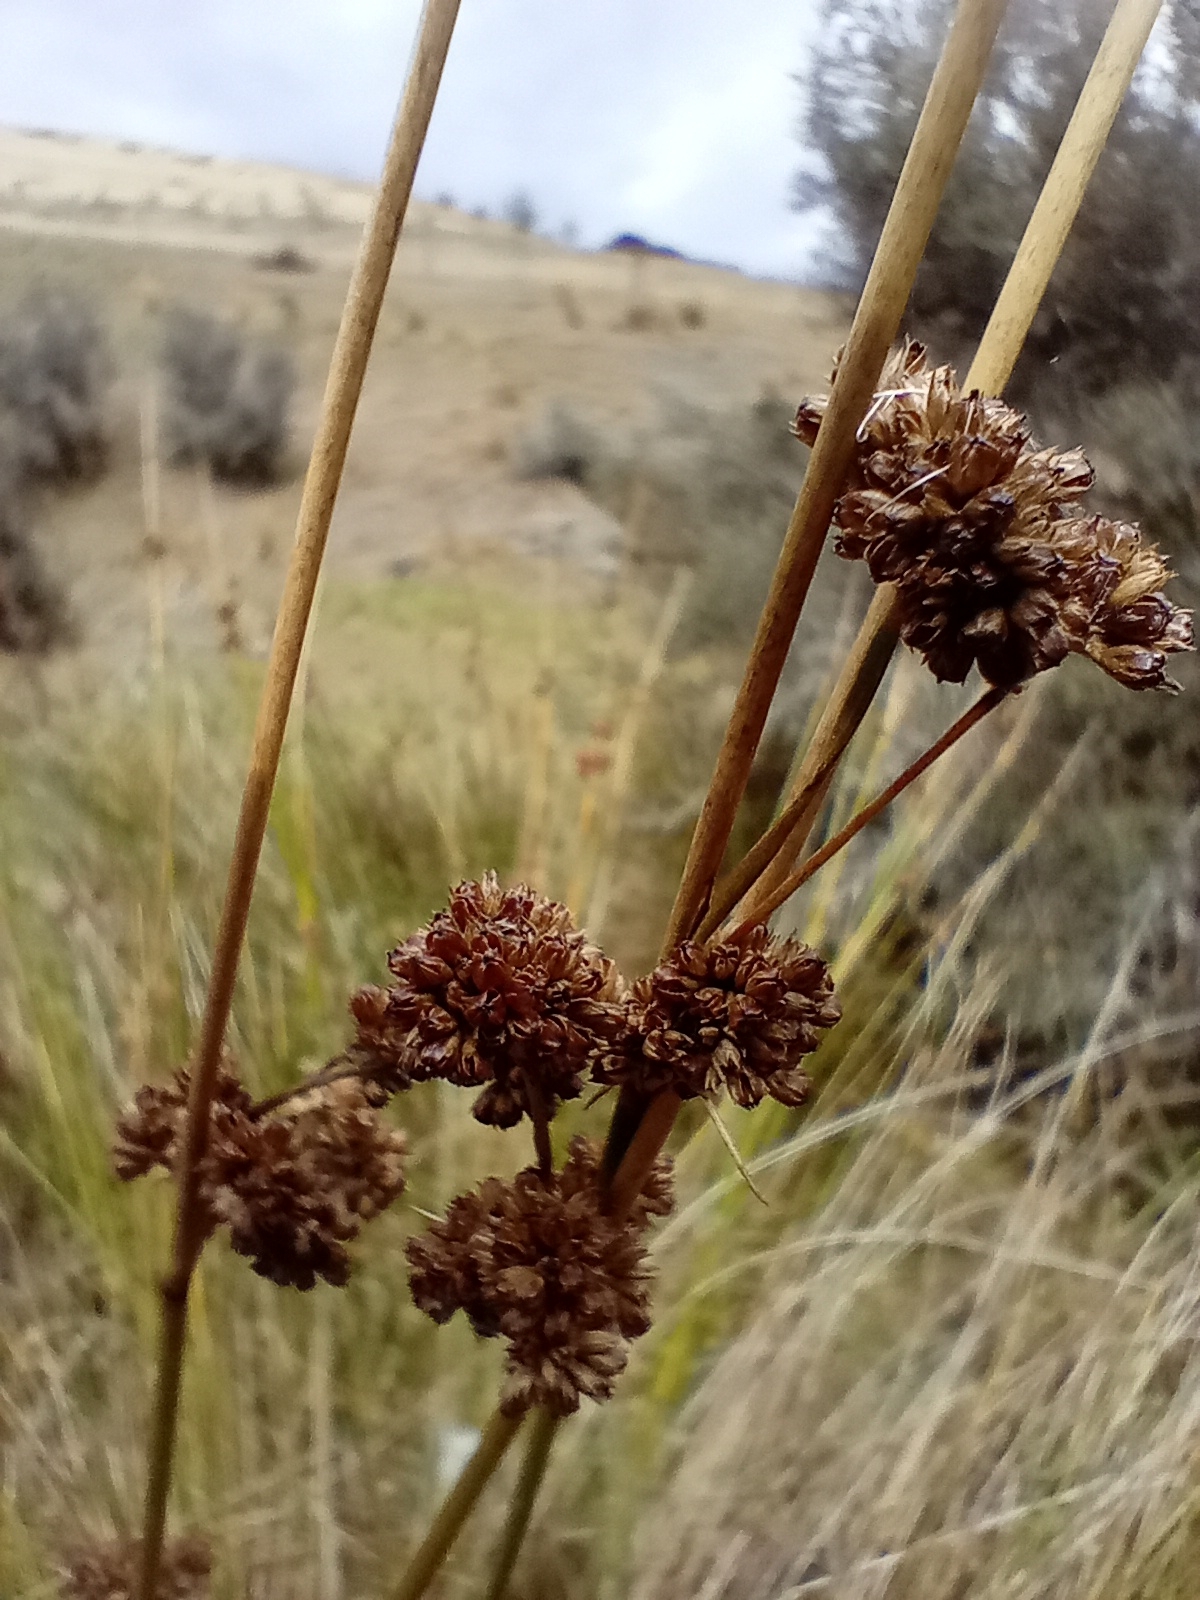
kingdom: Plantae
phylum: Tracheophyta
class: Liliopsida
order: Poales
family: Juncaceae
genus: Juncus
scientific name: Juncus edgariae
